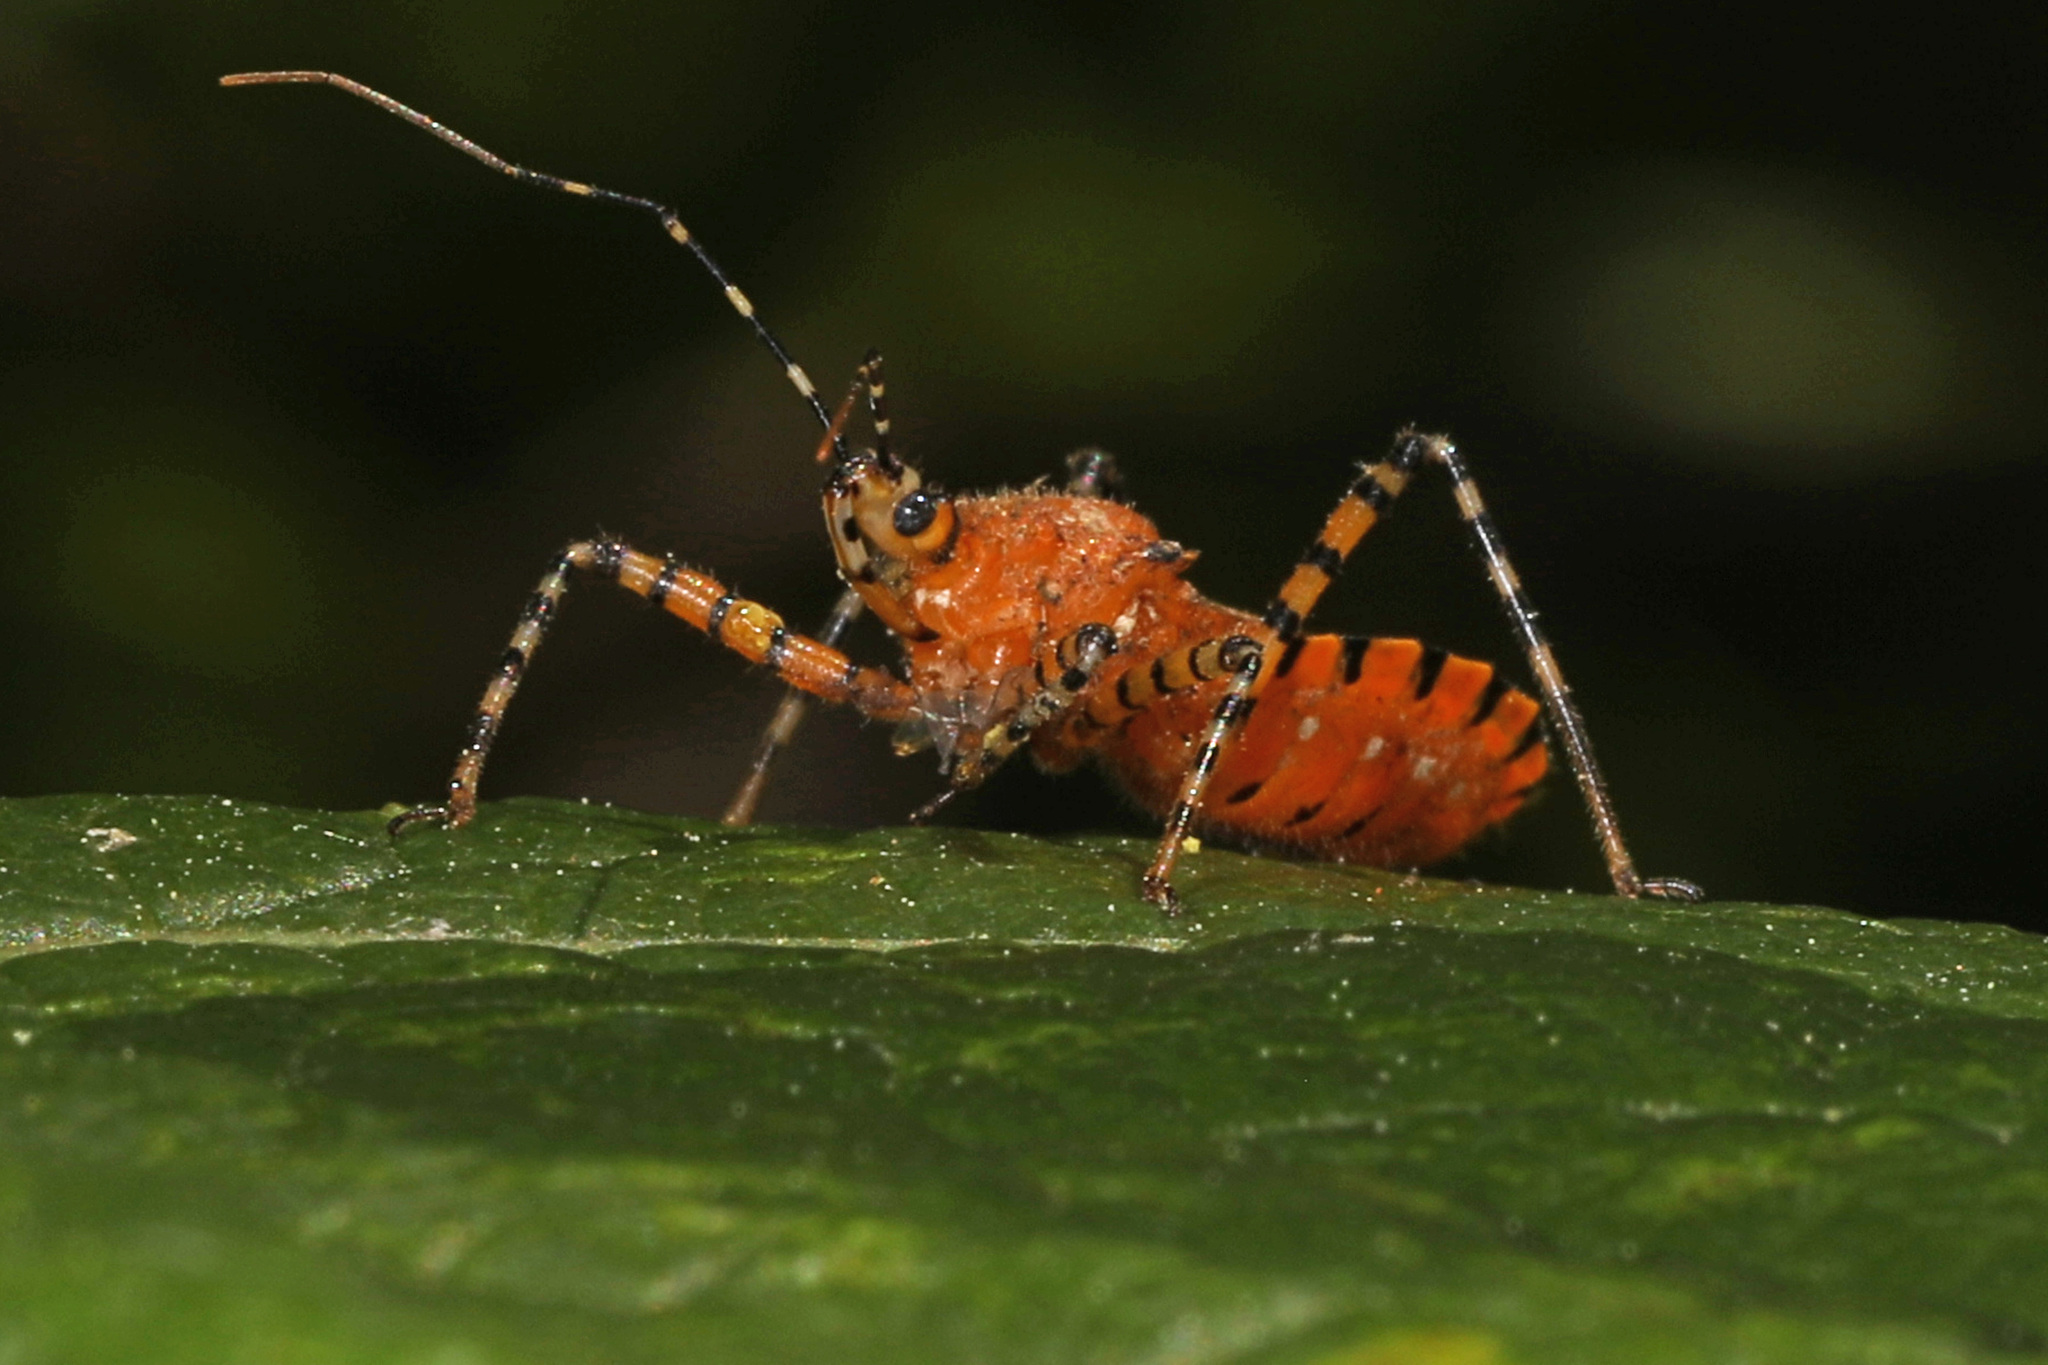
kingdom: Animalia
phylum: Arthropoda
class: Insecta
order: Hemiptera
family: Reduviidae
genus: Pselliopus
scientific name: Pselliopus barberi
